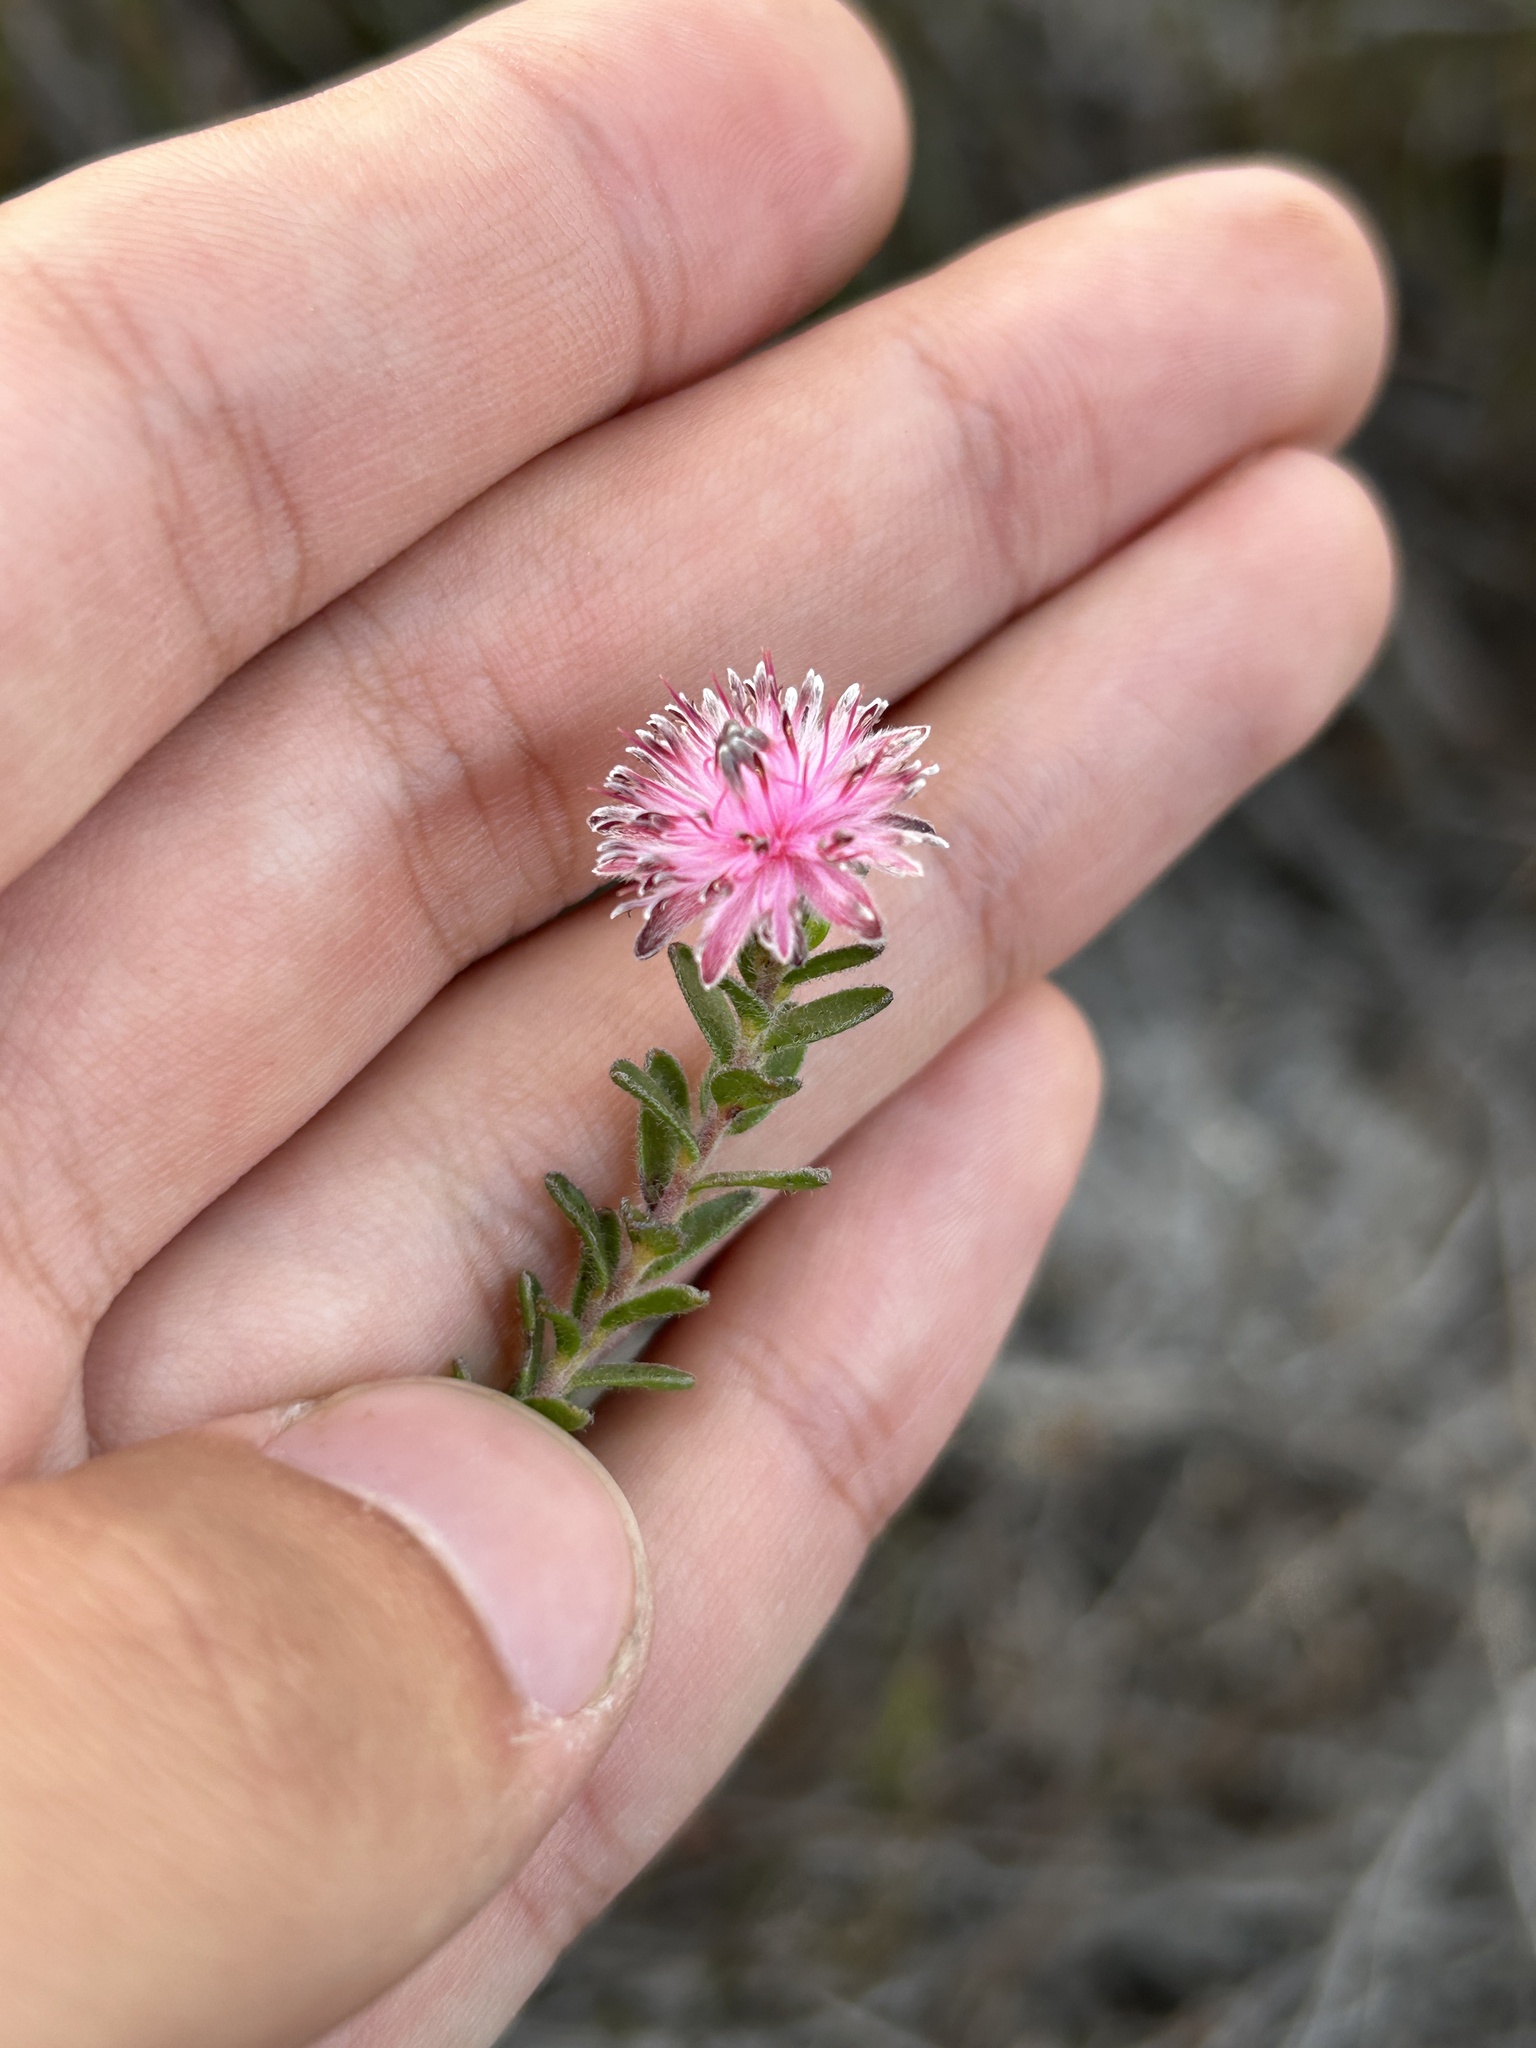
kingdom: Plantae
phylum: Tracheophyta
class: Magnoliopsida
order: Proteales
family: Proteaceae
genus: Diastella
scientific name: Diastella divaricata
